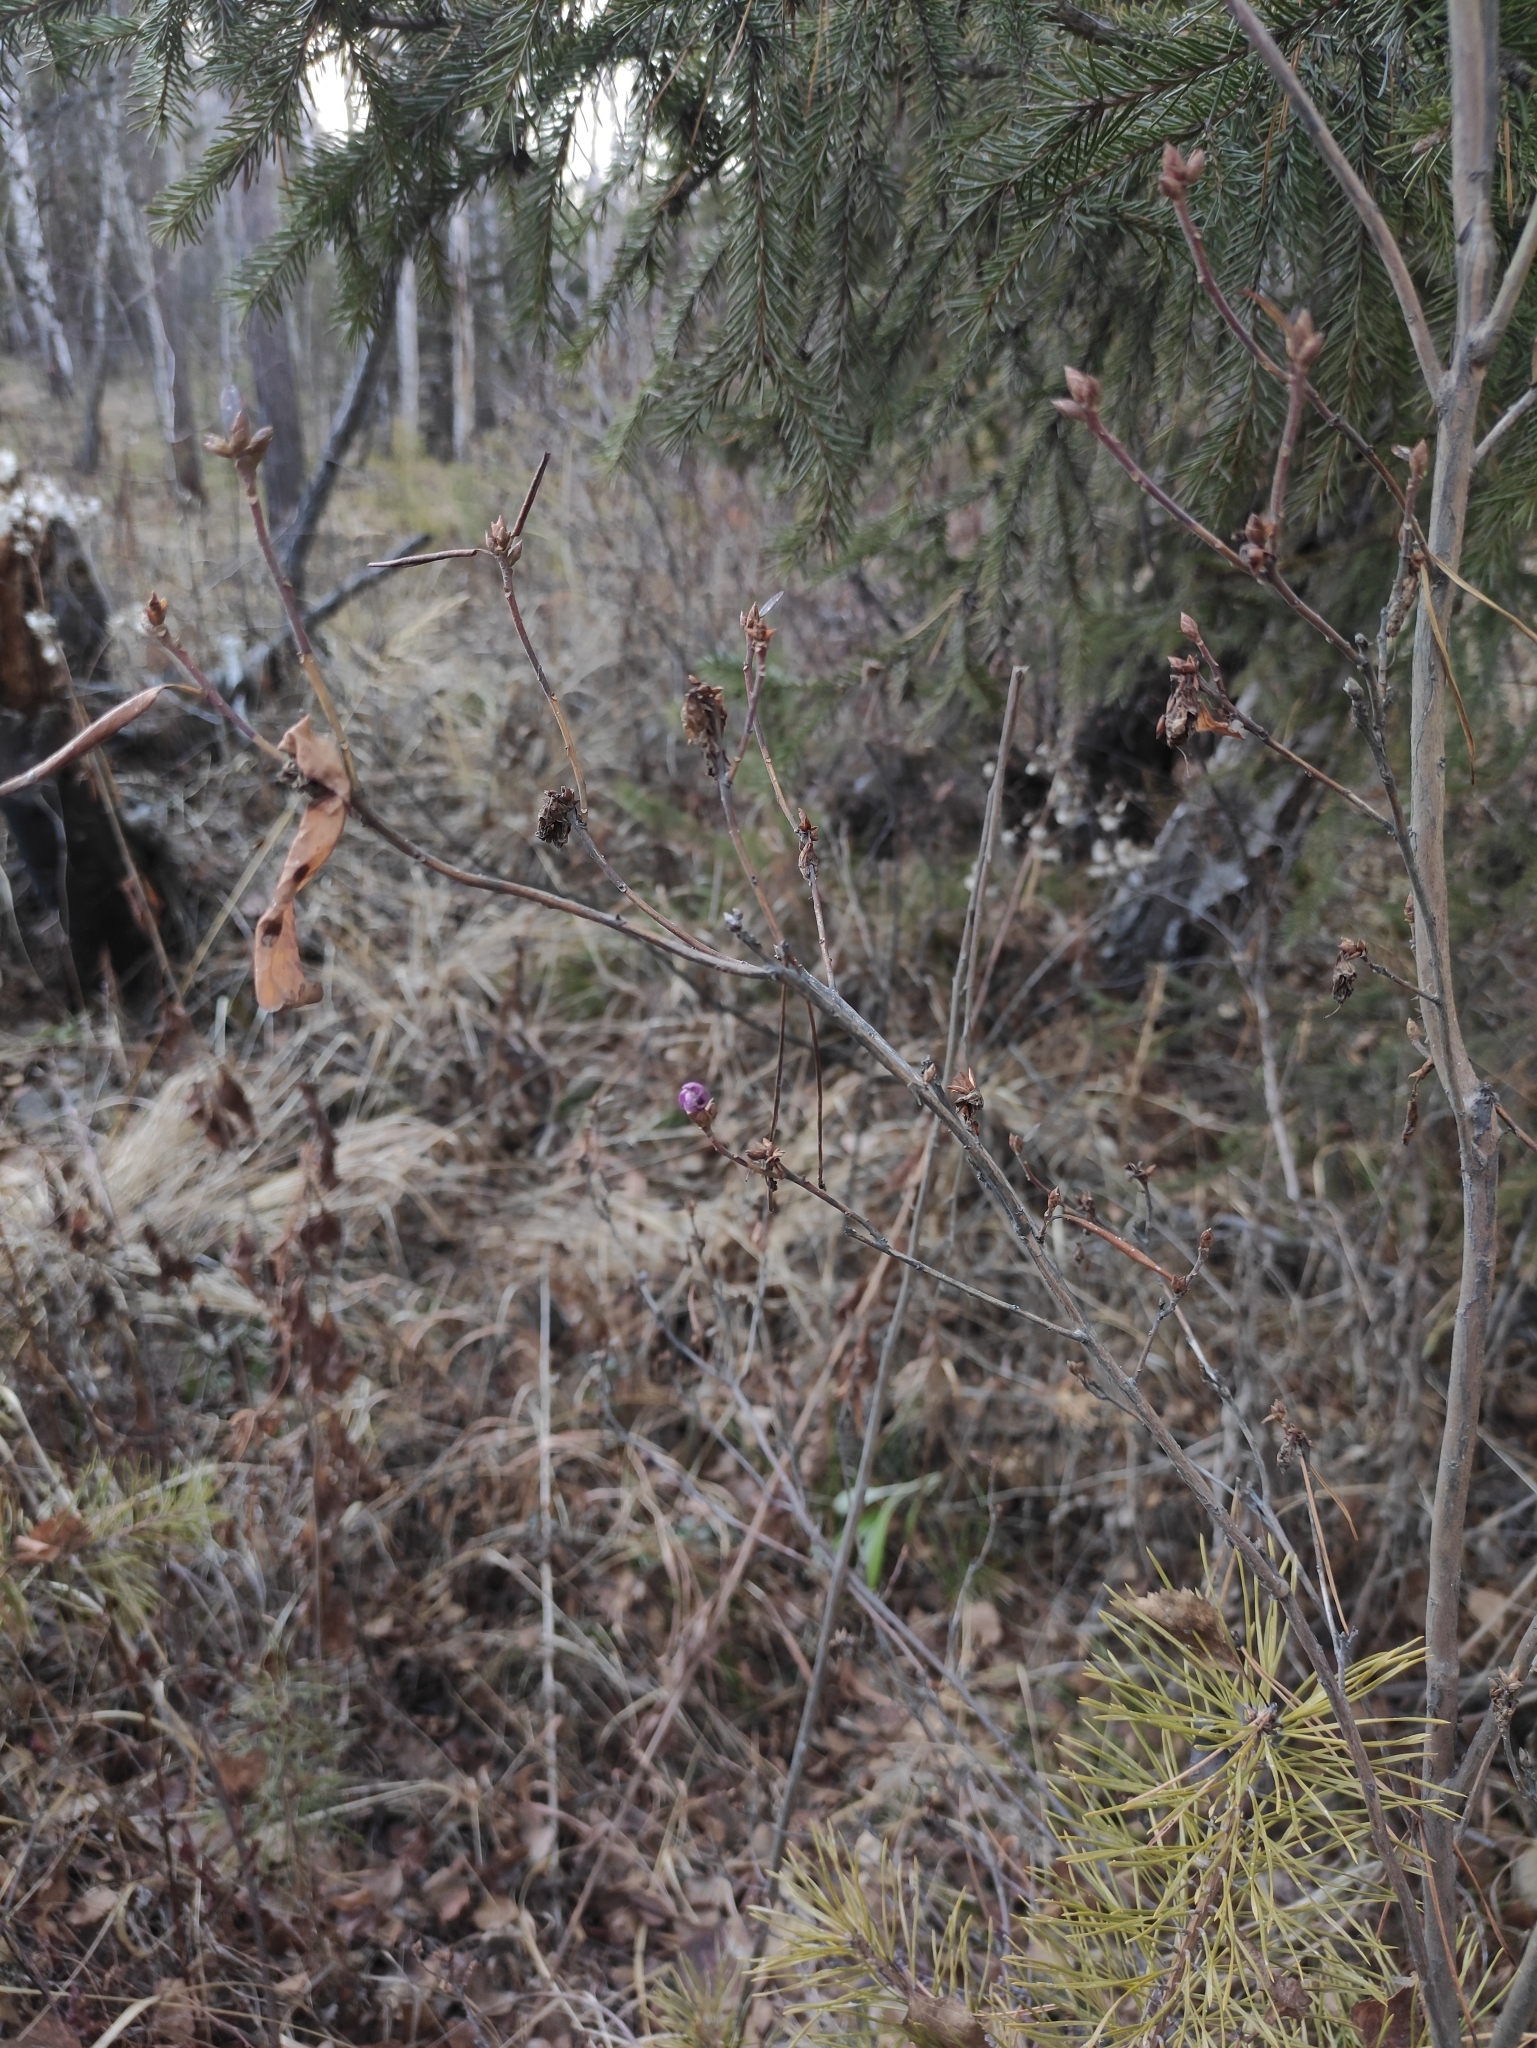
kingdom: Plantae
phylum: Tracheophyta
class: Magnoliopsida
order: Ericales
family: Ericaceae
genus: Rhododendron
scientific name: Rhododendron dauricum
